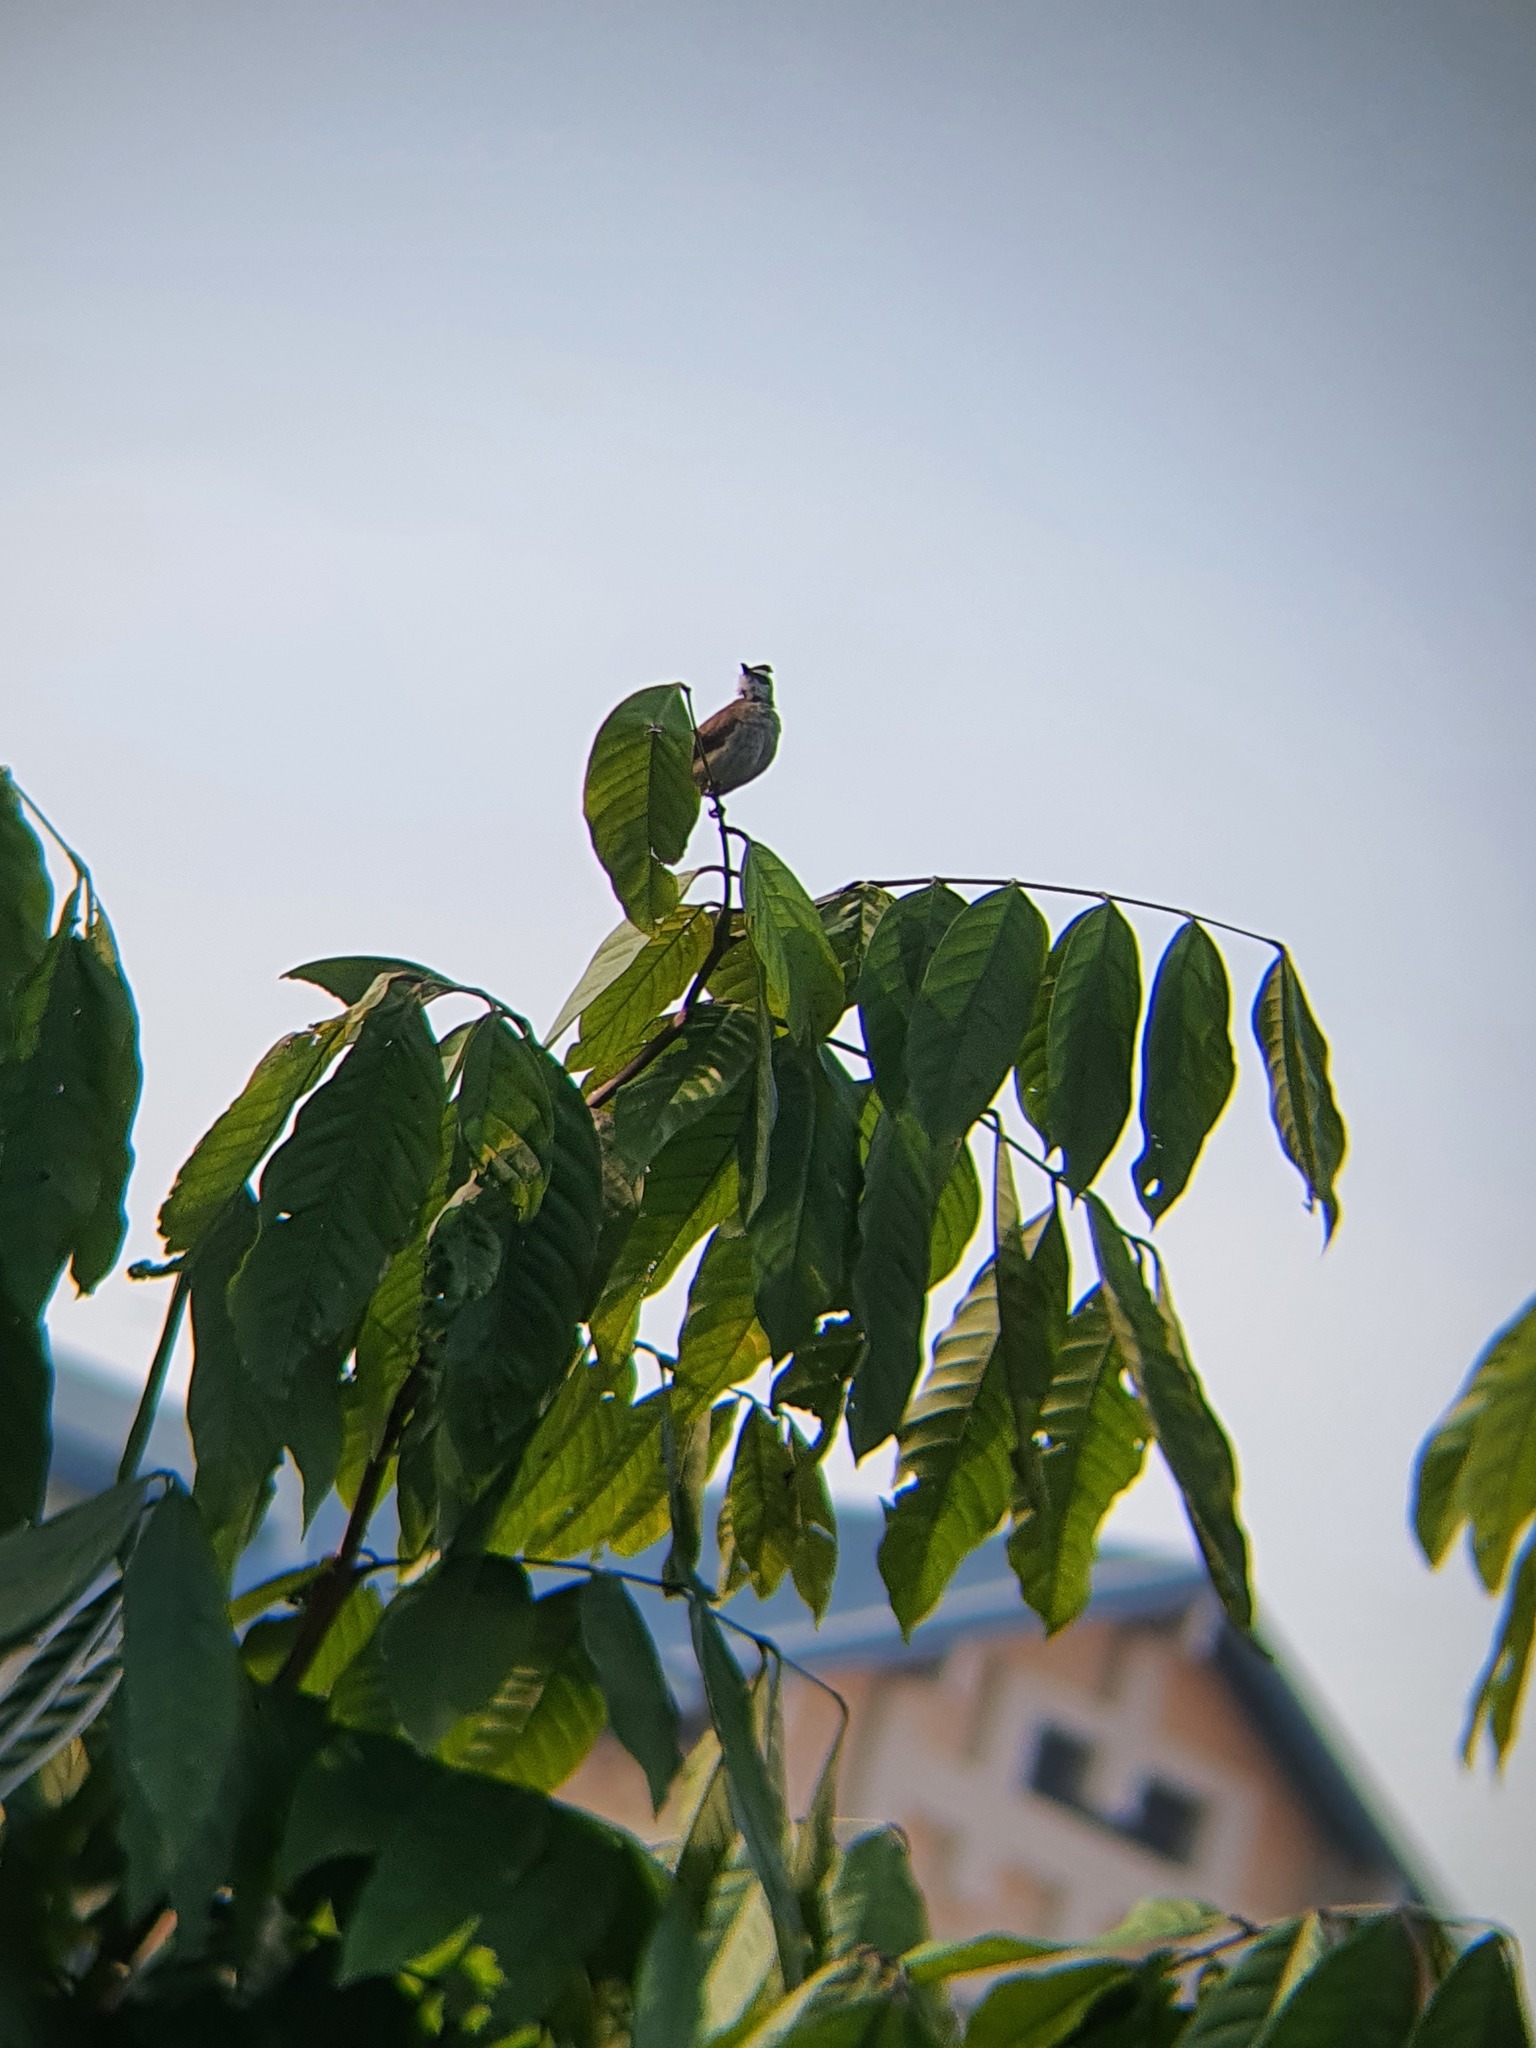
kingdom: Animalia
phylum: Chordata
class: Aves
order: Passeriformes
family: Pycnonotidae
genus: Pycnonotus
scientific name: Pycnonotus goiavier
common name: Yellow-vented bulbul
